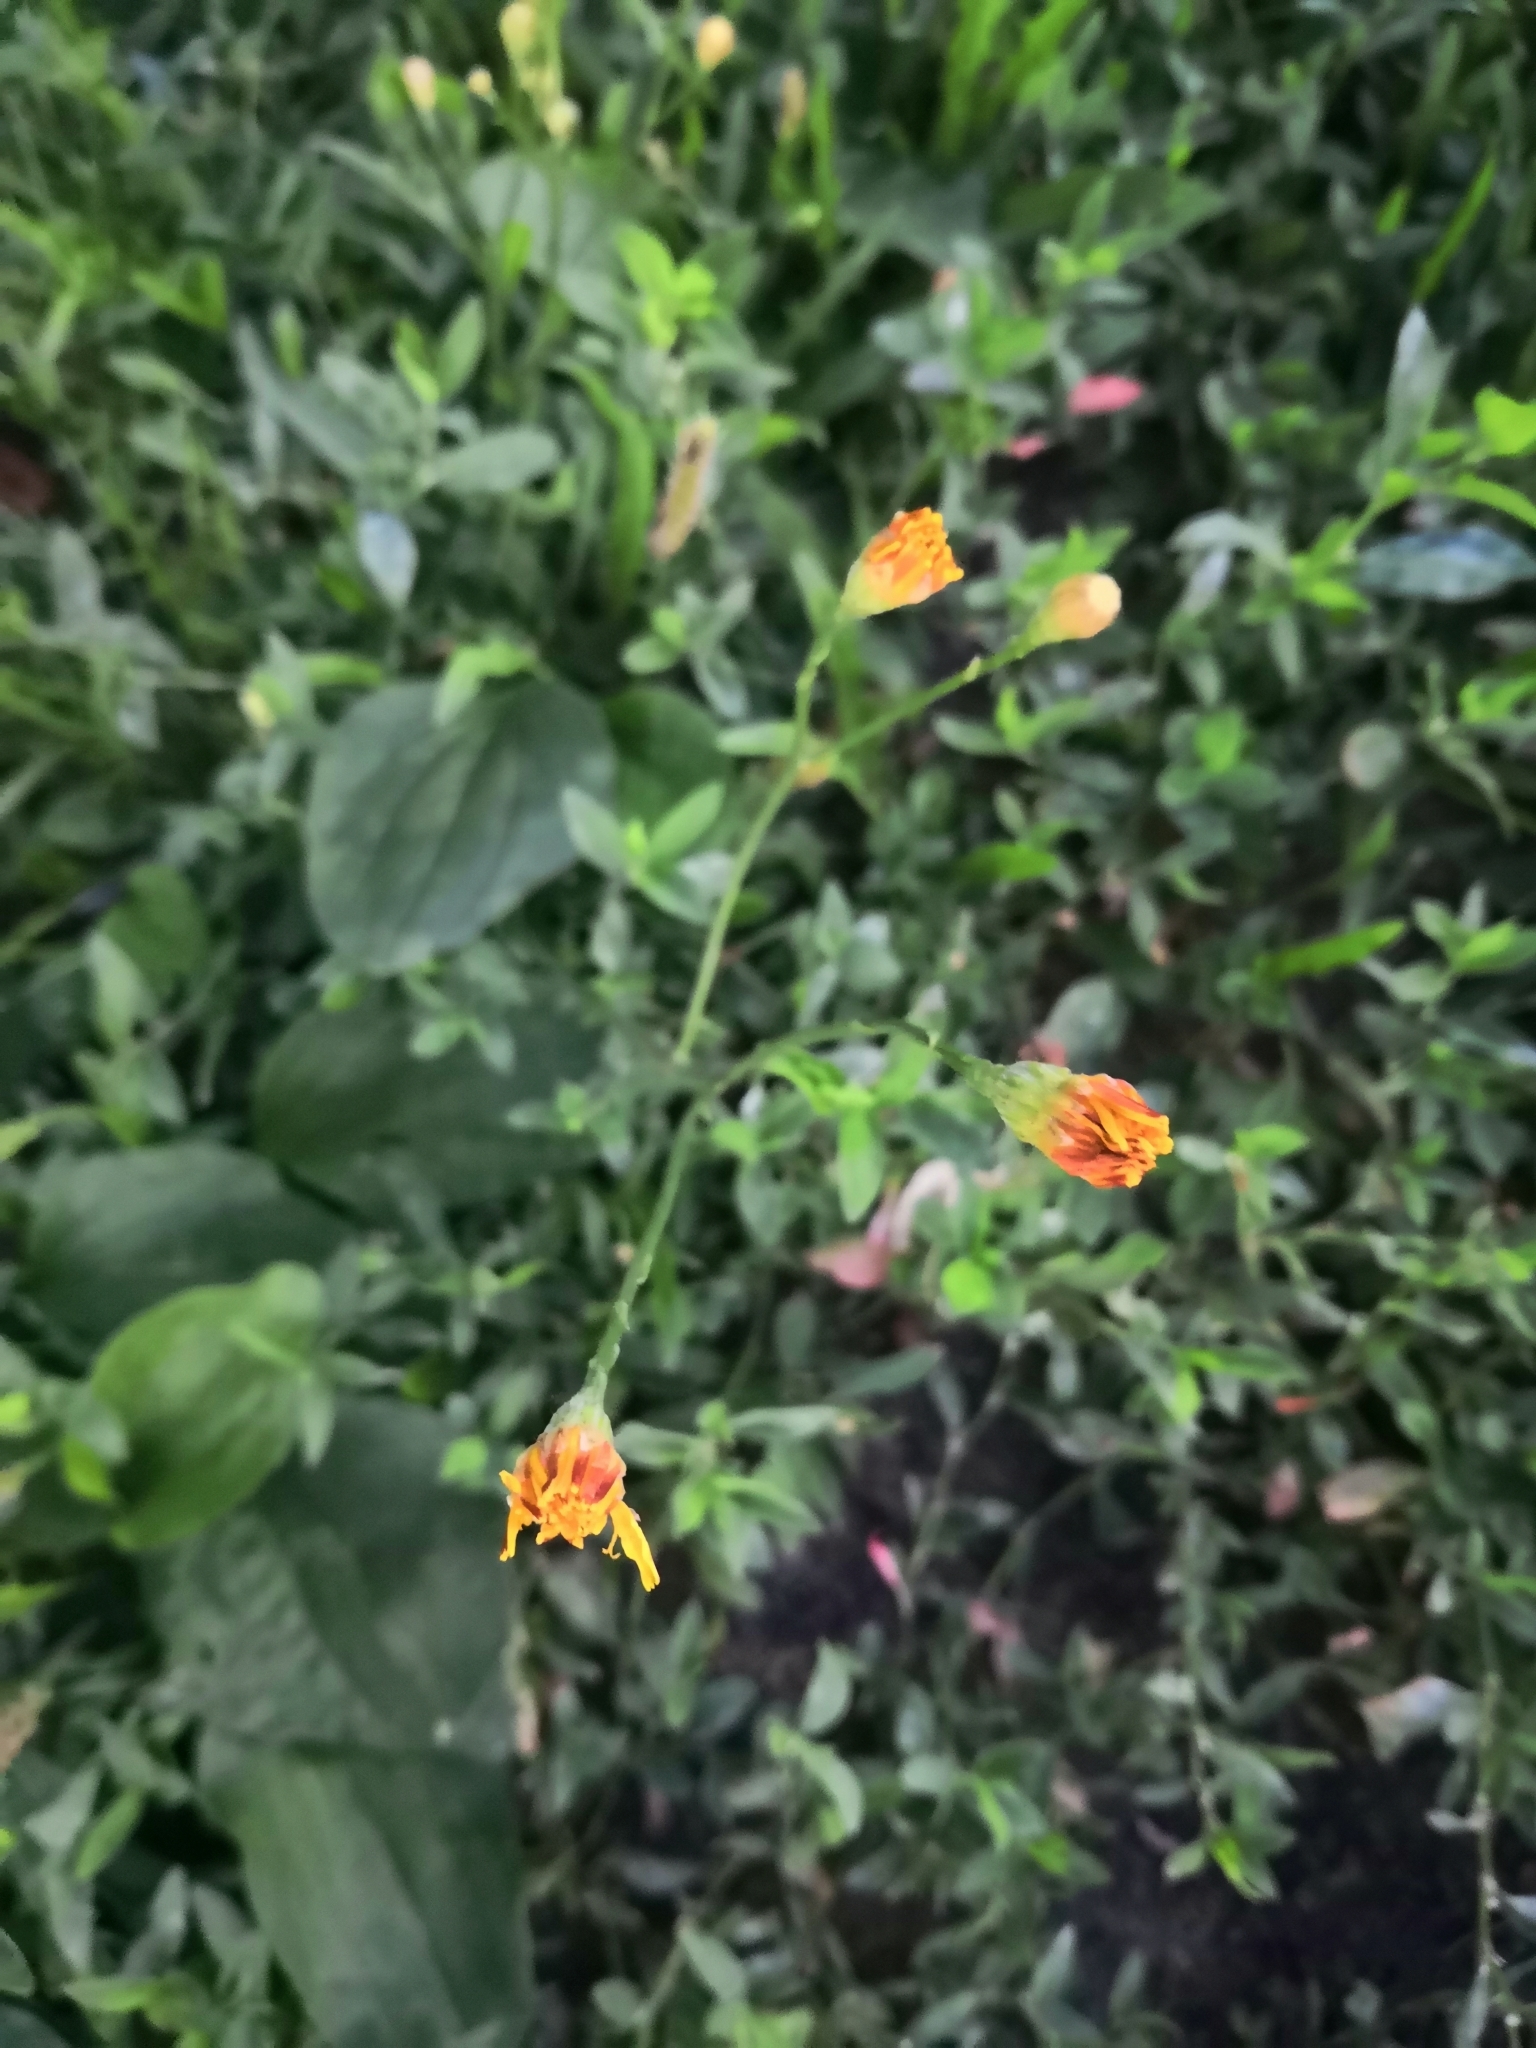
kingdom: Plantae
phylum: Tracheophyta
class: Magnoliopsida
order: Asterales
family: Asteraceae
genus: Scorzoneroides
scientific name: Scorzoneroides autumnalis
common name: Autumn hawkbit
